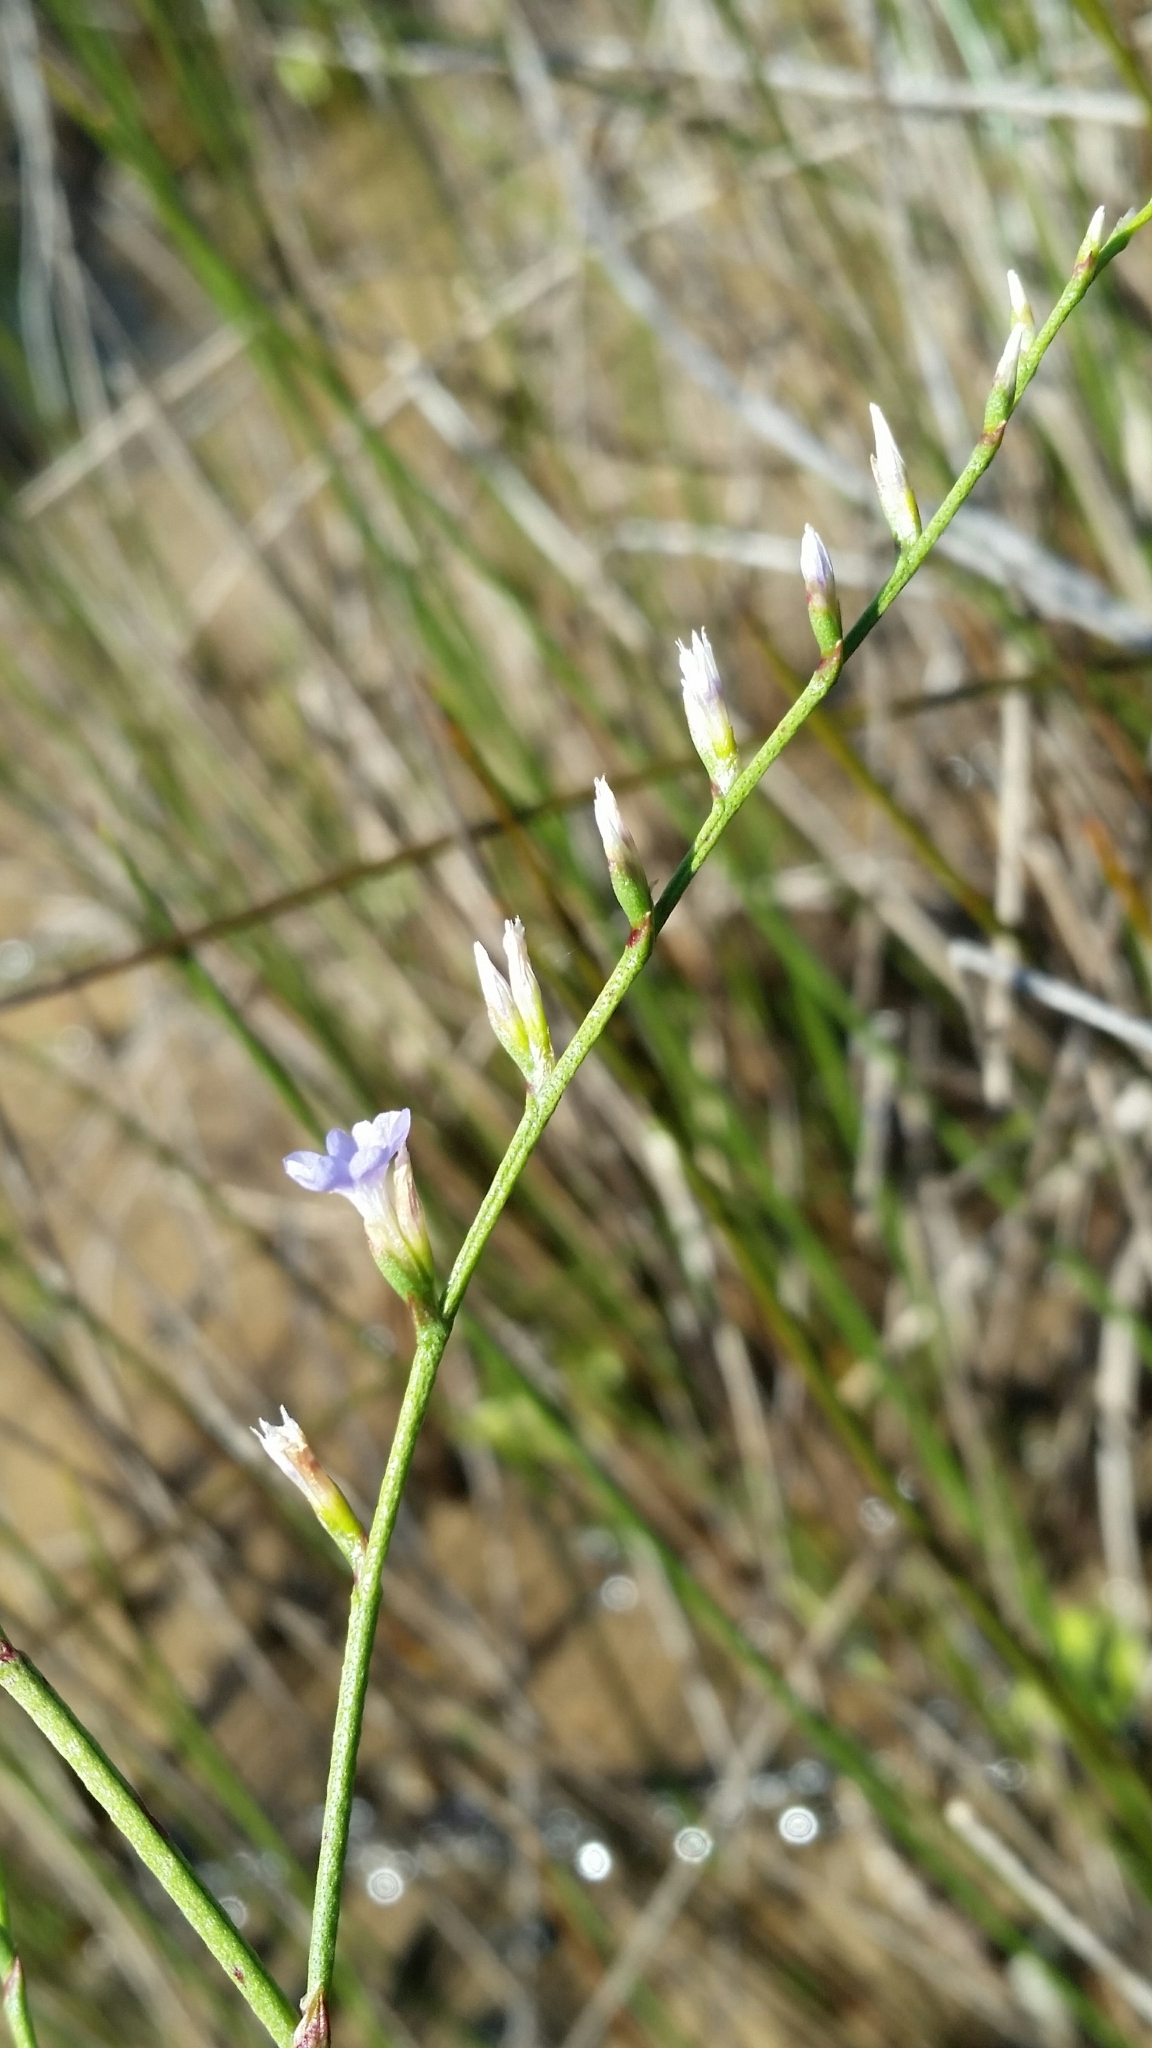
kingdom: Plantae
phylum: Tracheophyta
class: Magnoliopsida
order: Caryophyllales
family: Plumbaginaceae
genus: Limonium
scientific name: Limonium carolinianum
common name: Carolina sea lavender
